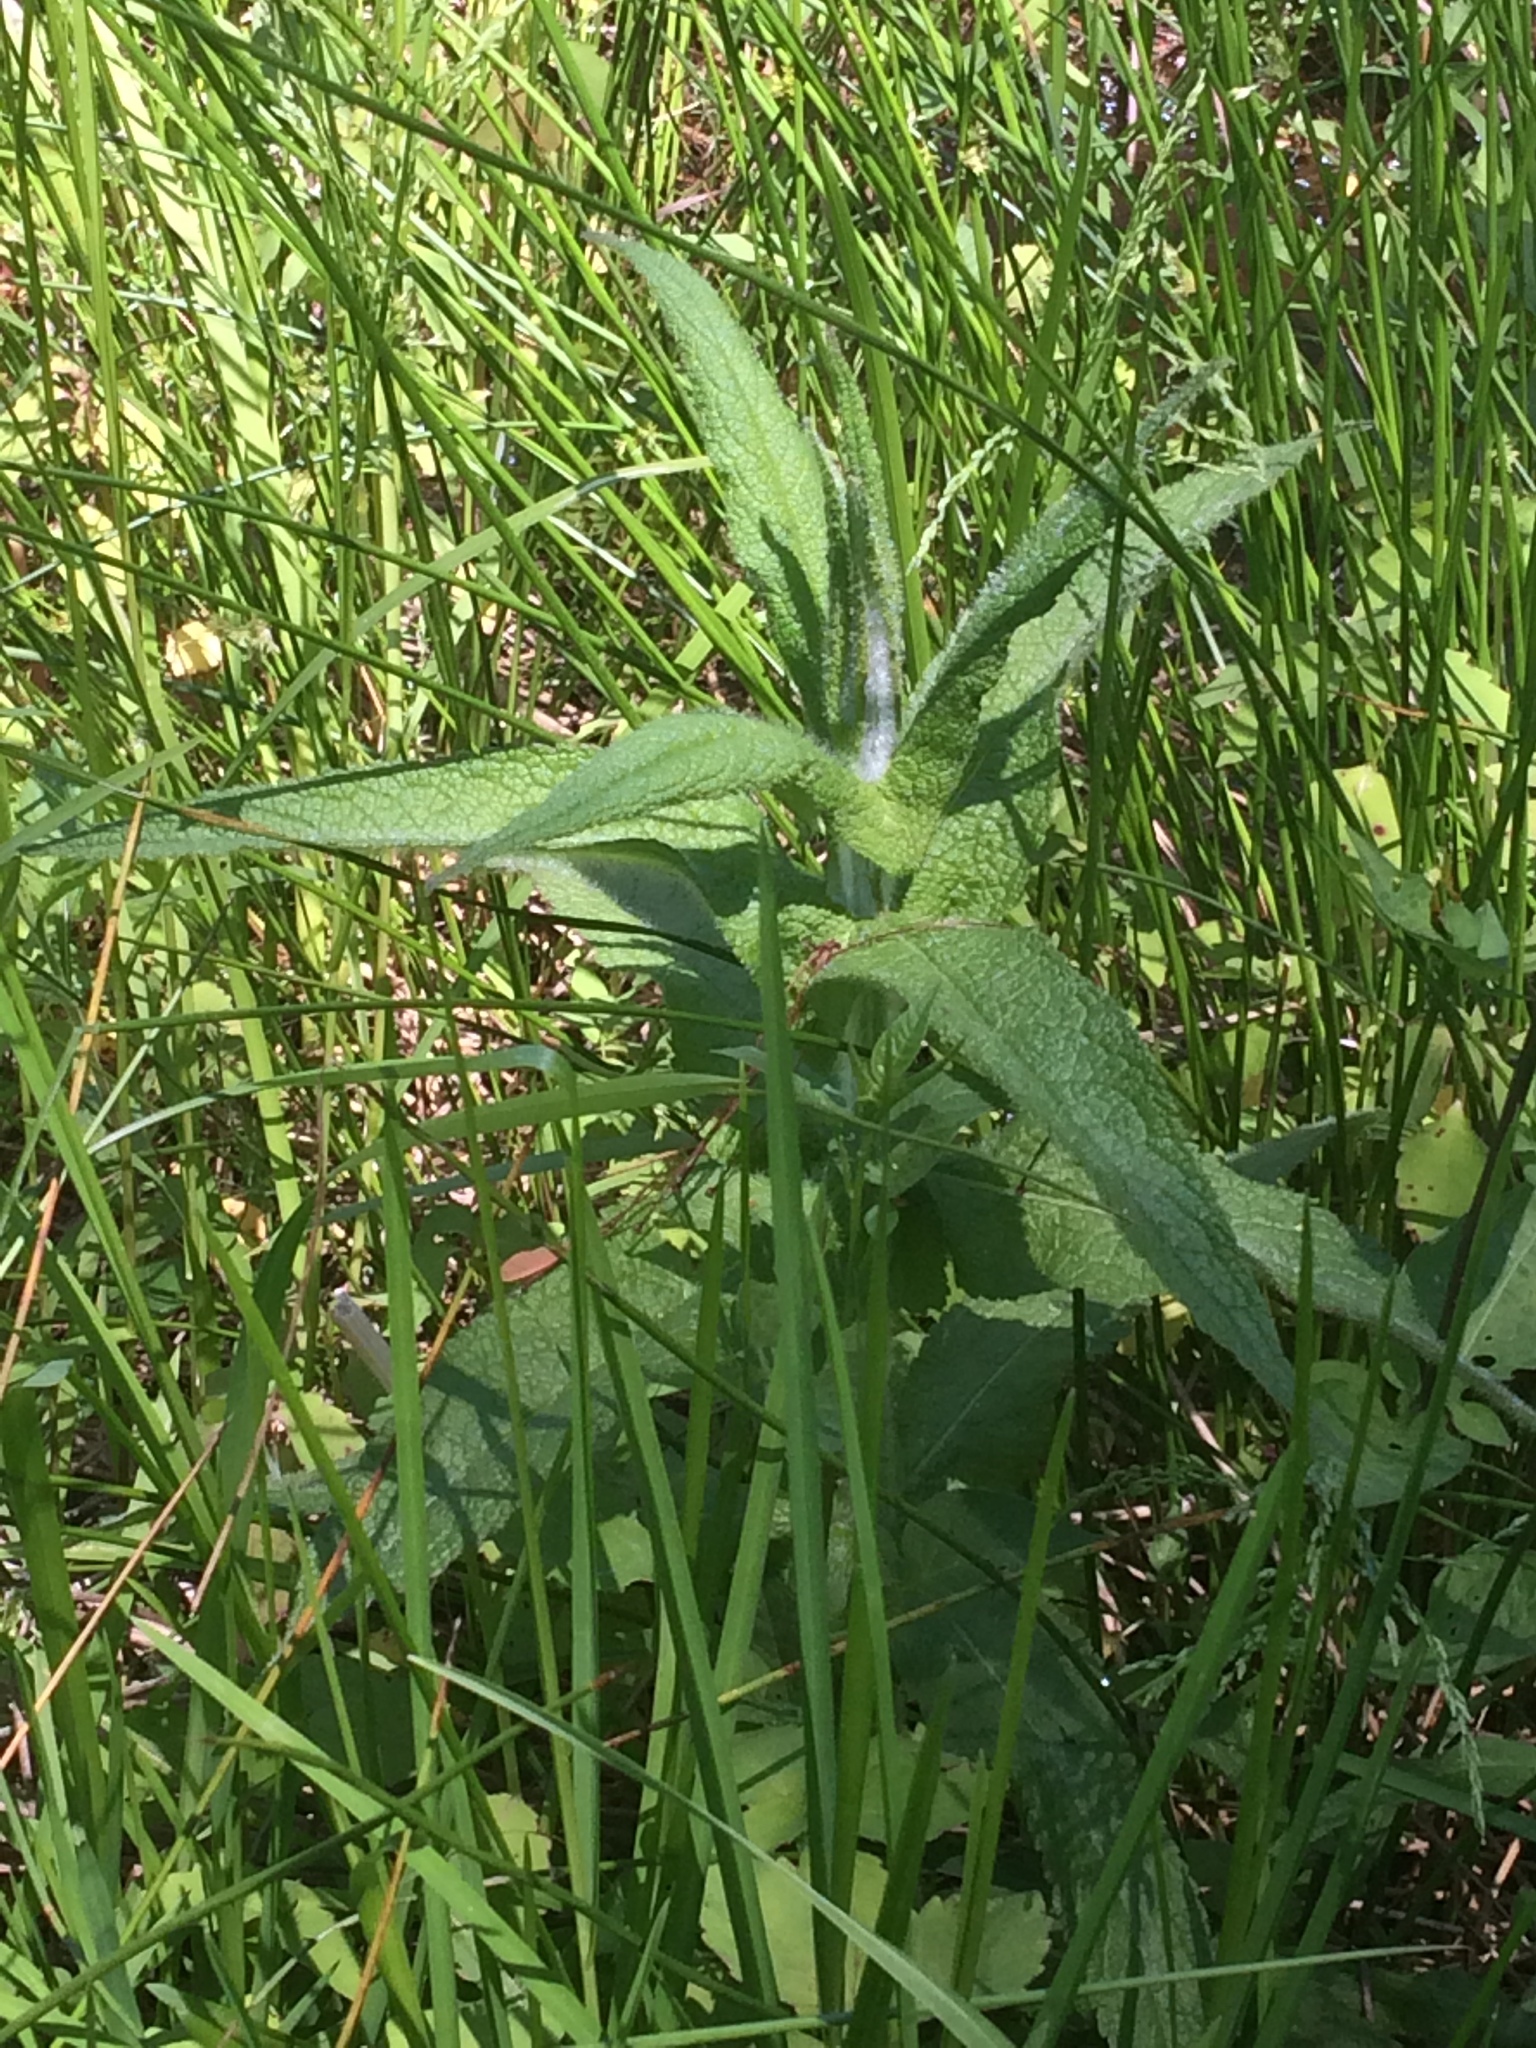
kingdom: Plantae
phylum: Tracheophyta
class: Magnoliopsida
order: Asterales
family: Asteraceae
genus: Eupatorium
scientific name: Eupatorium perfoliatum
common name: Boneset
